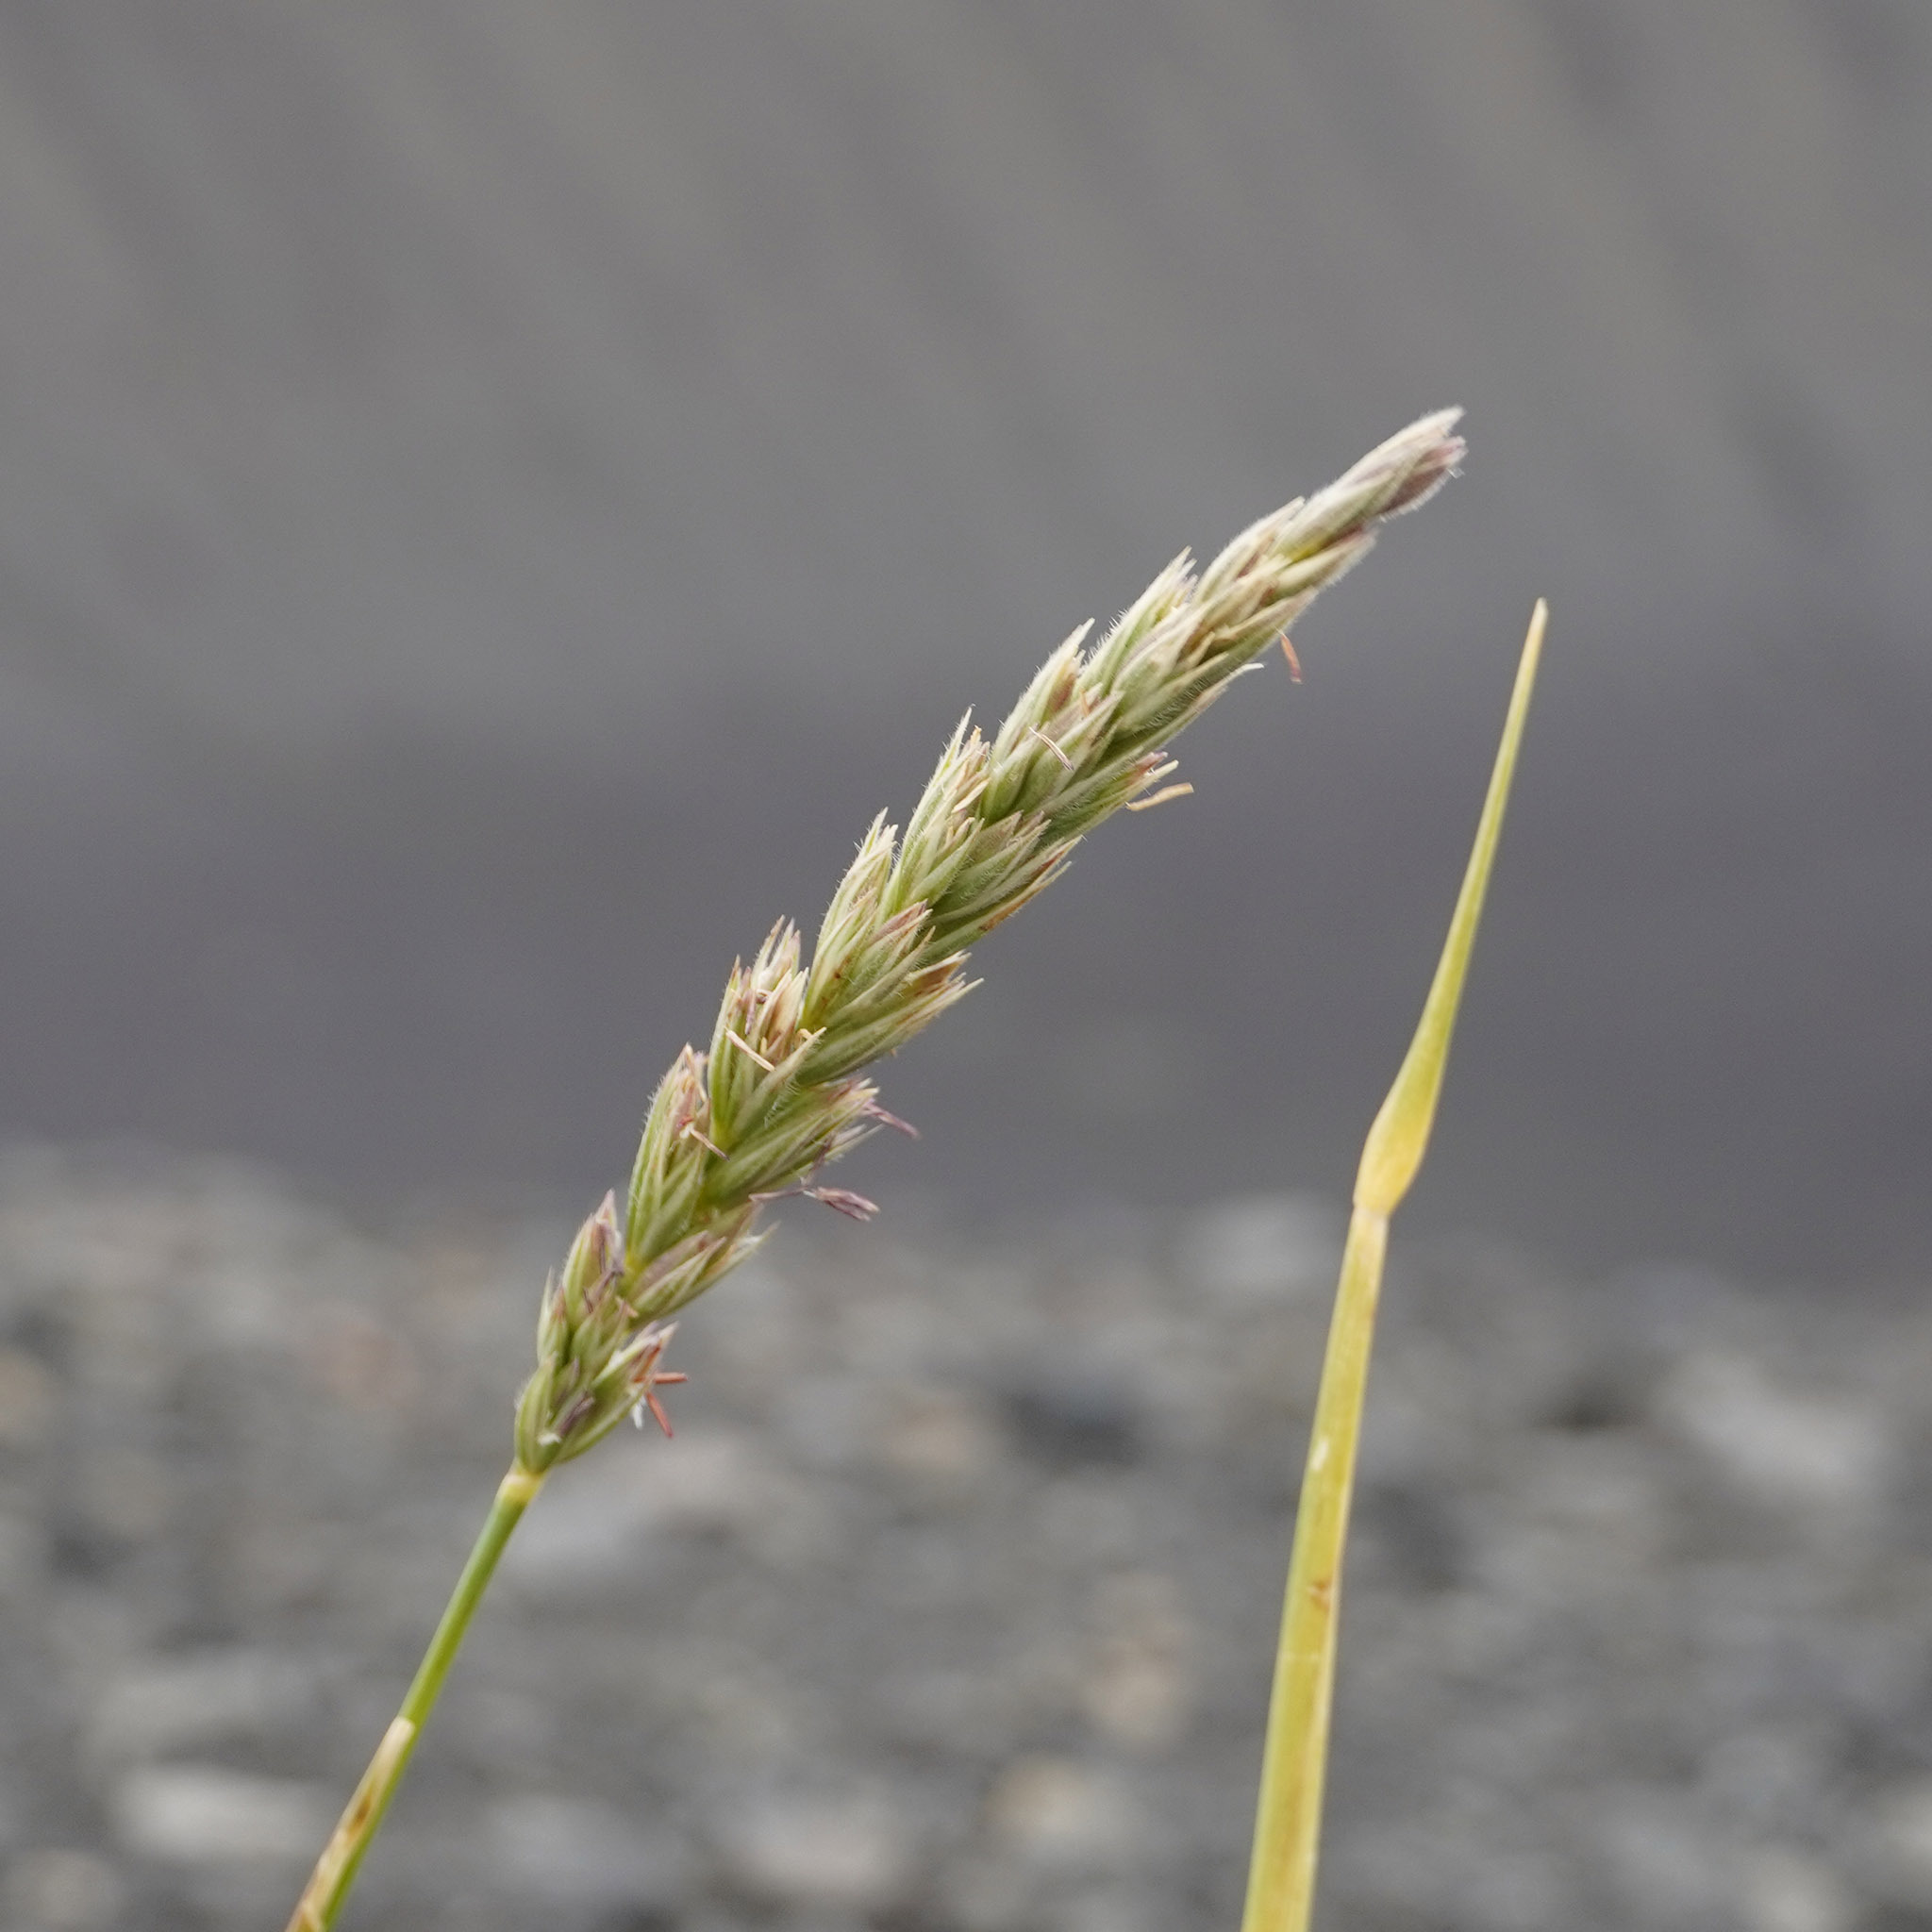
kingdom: Plantae
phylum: Tracheophyta
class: Liliopsida
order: Poales
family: Poaceae
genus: Leymus
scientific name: Leymus arenarius
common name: Lyme-grass
